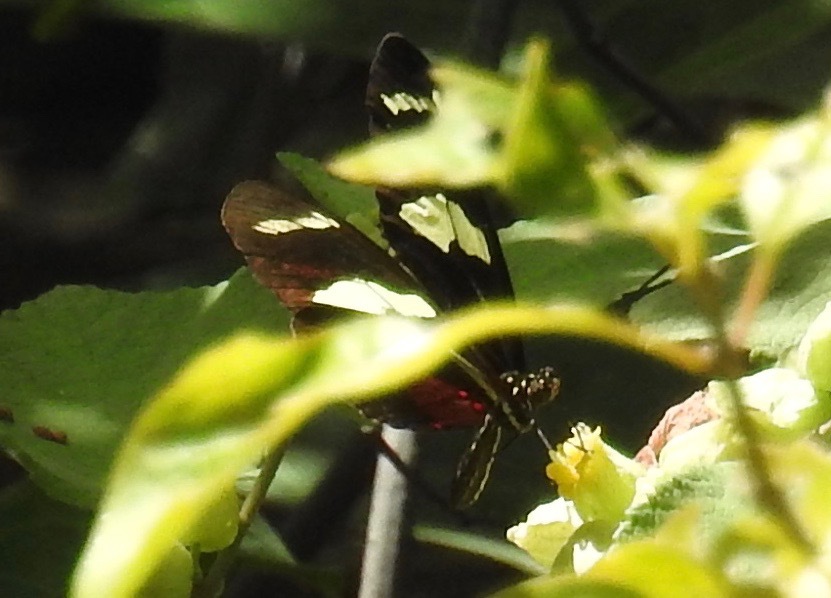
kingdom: Animalia
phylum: Arthropoda
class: Insecta
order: Lepidoptera
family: Nymphalidae
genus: Heliconius
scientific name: Heliconius ricini
